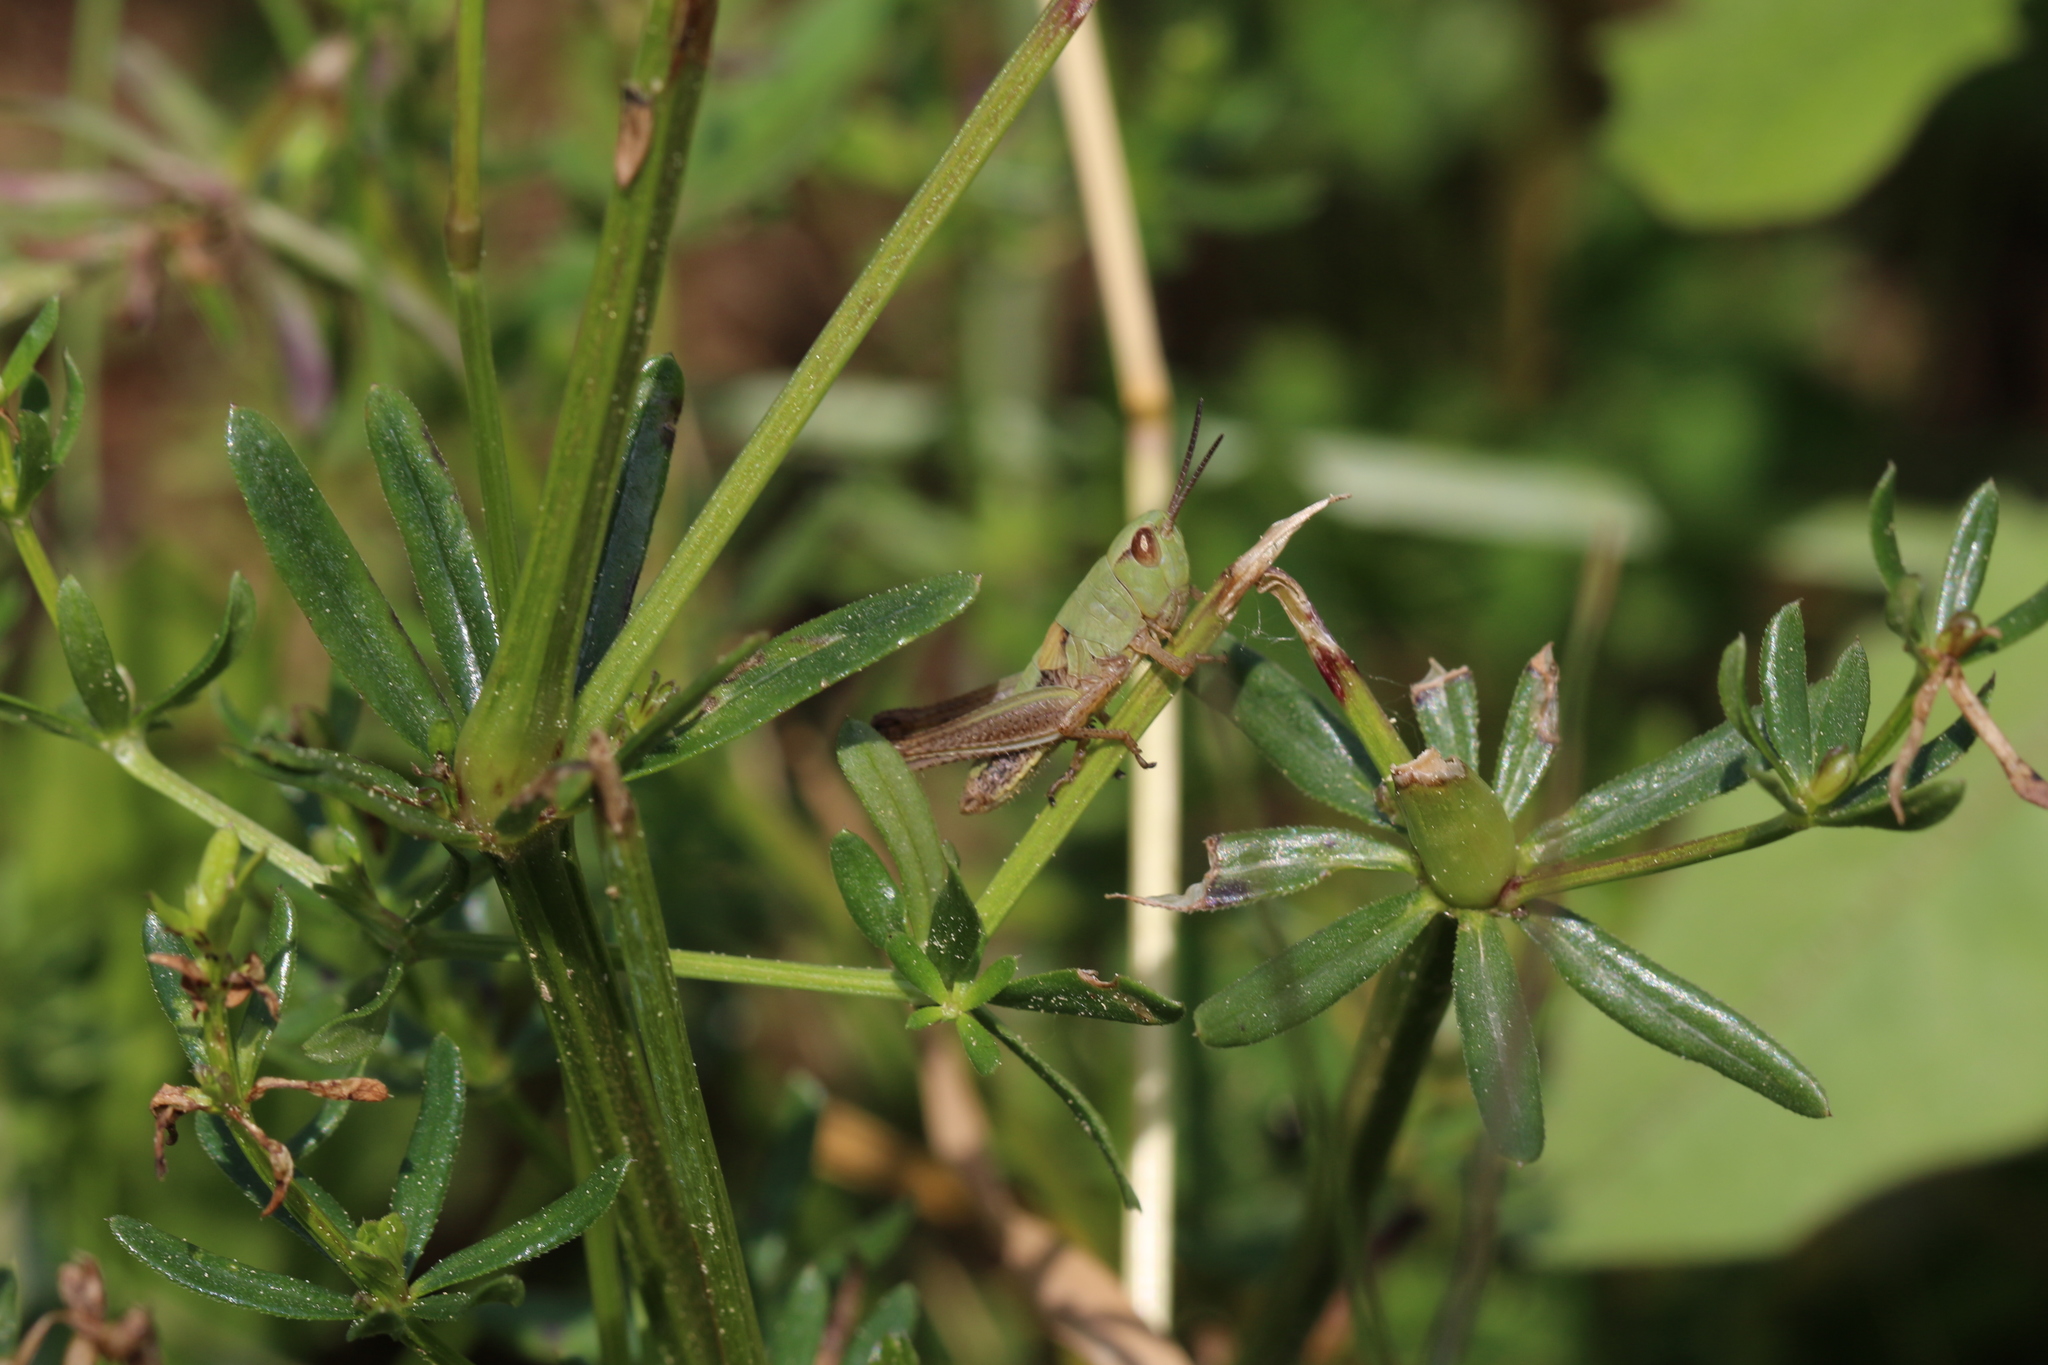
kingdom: Animalia
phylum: Arthropoda
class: Insecta
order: Orthoptera
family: Acrididae
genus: Pseudochorthippus
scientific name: Pseudochorthippus parallelus
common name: Meadow grasshopper
